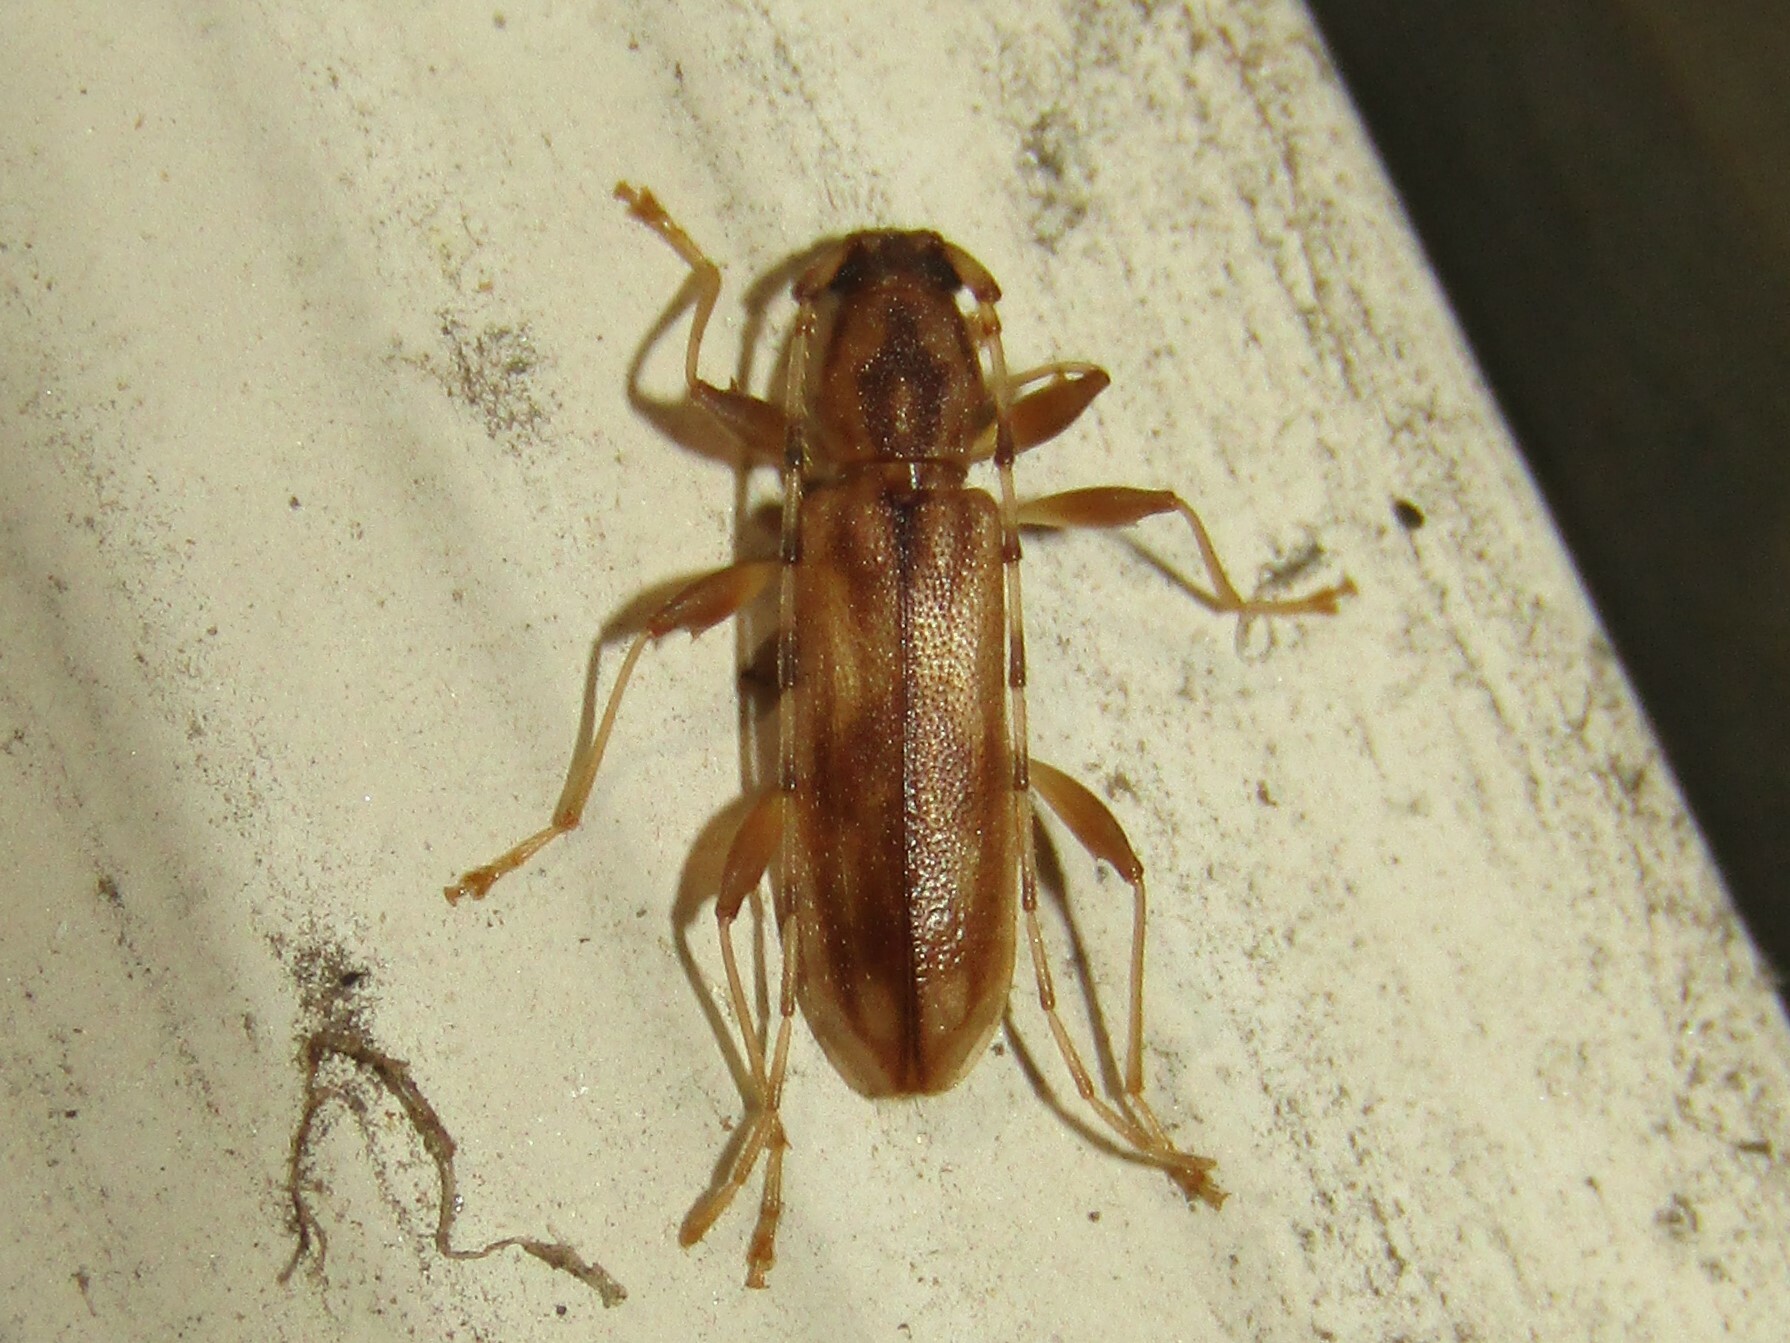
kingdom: Animalia
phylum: Arthropoda
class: Insecta
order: Coleoptera
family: Cerambycidae
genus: Curius
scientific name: Curius dentatus
